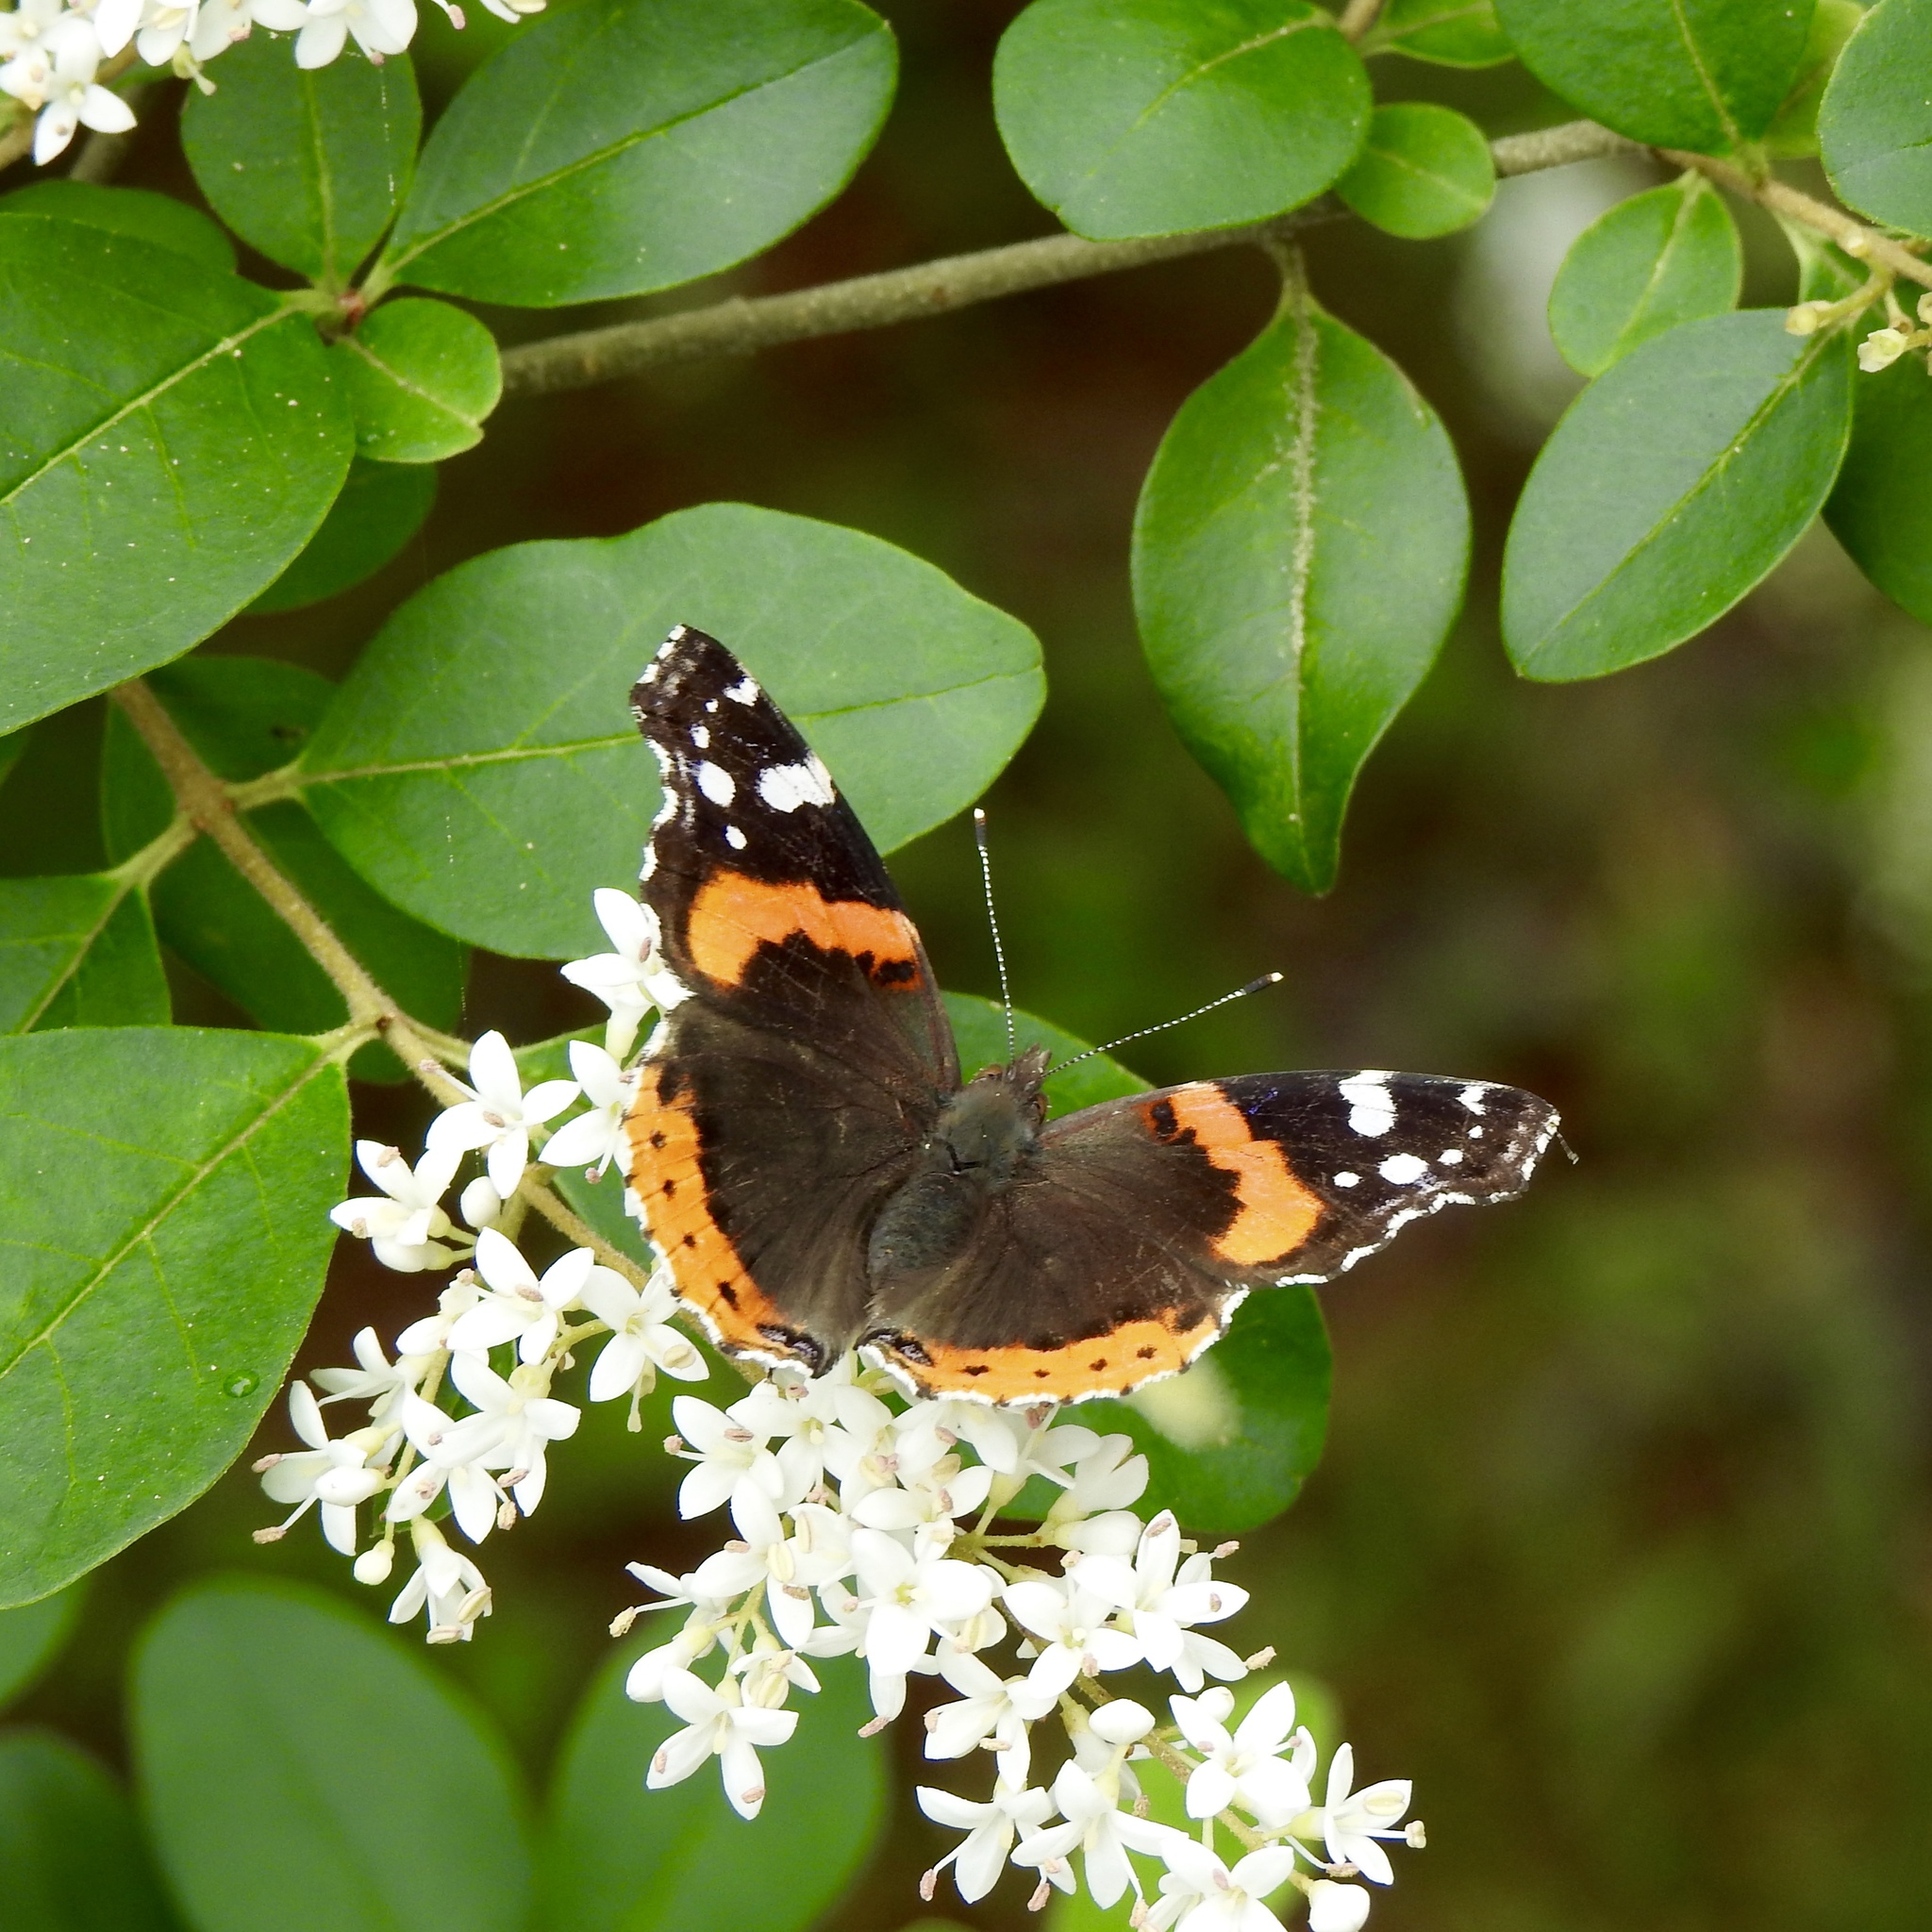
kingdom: Animalia
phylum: Arthropoda
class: Insecta
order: Lepidoptera
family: Nymphalidae
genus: Vanessa
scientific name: Vanessa atalanta
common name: Red admiral
